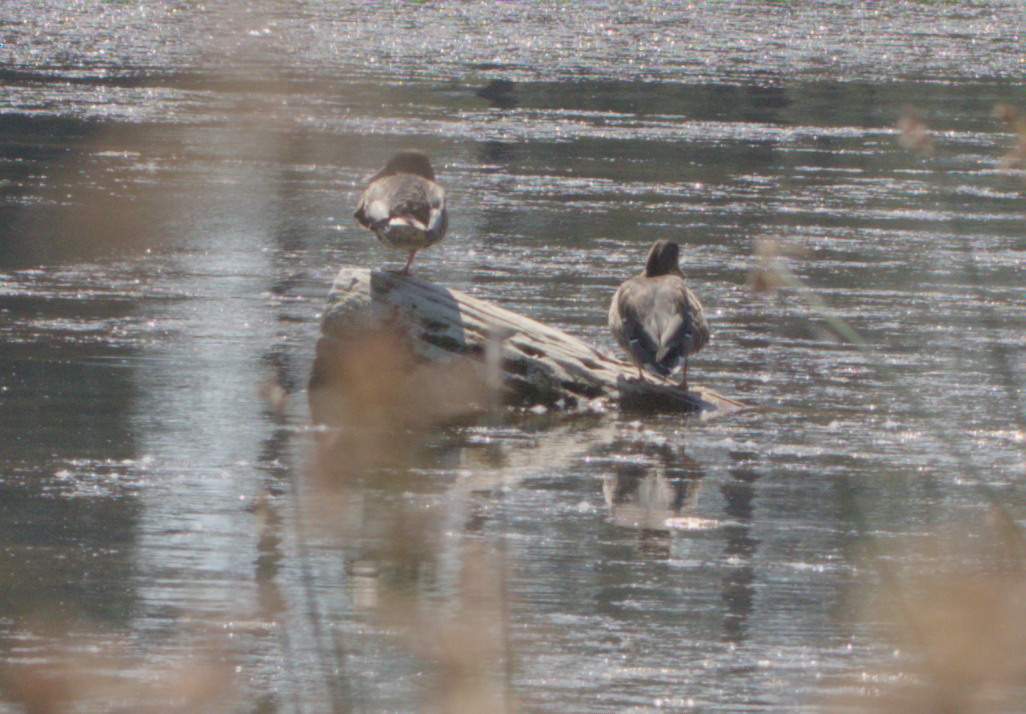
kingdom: Animalia
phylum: Chordata
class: Aves
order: Anseriformes
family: Anatidae
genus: Anas
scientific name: Anas platyrhynchos
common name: Mallard
